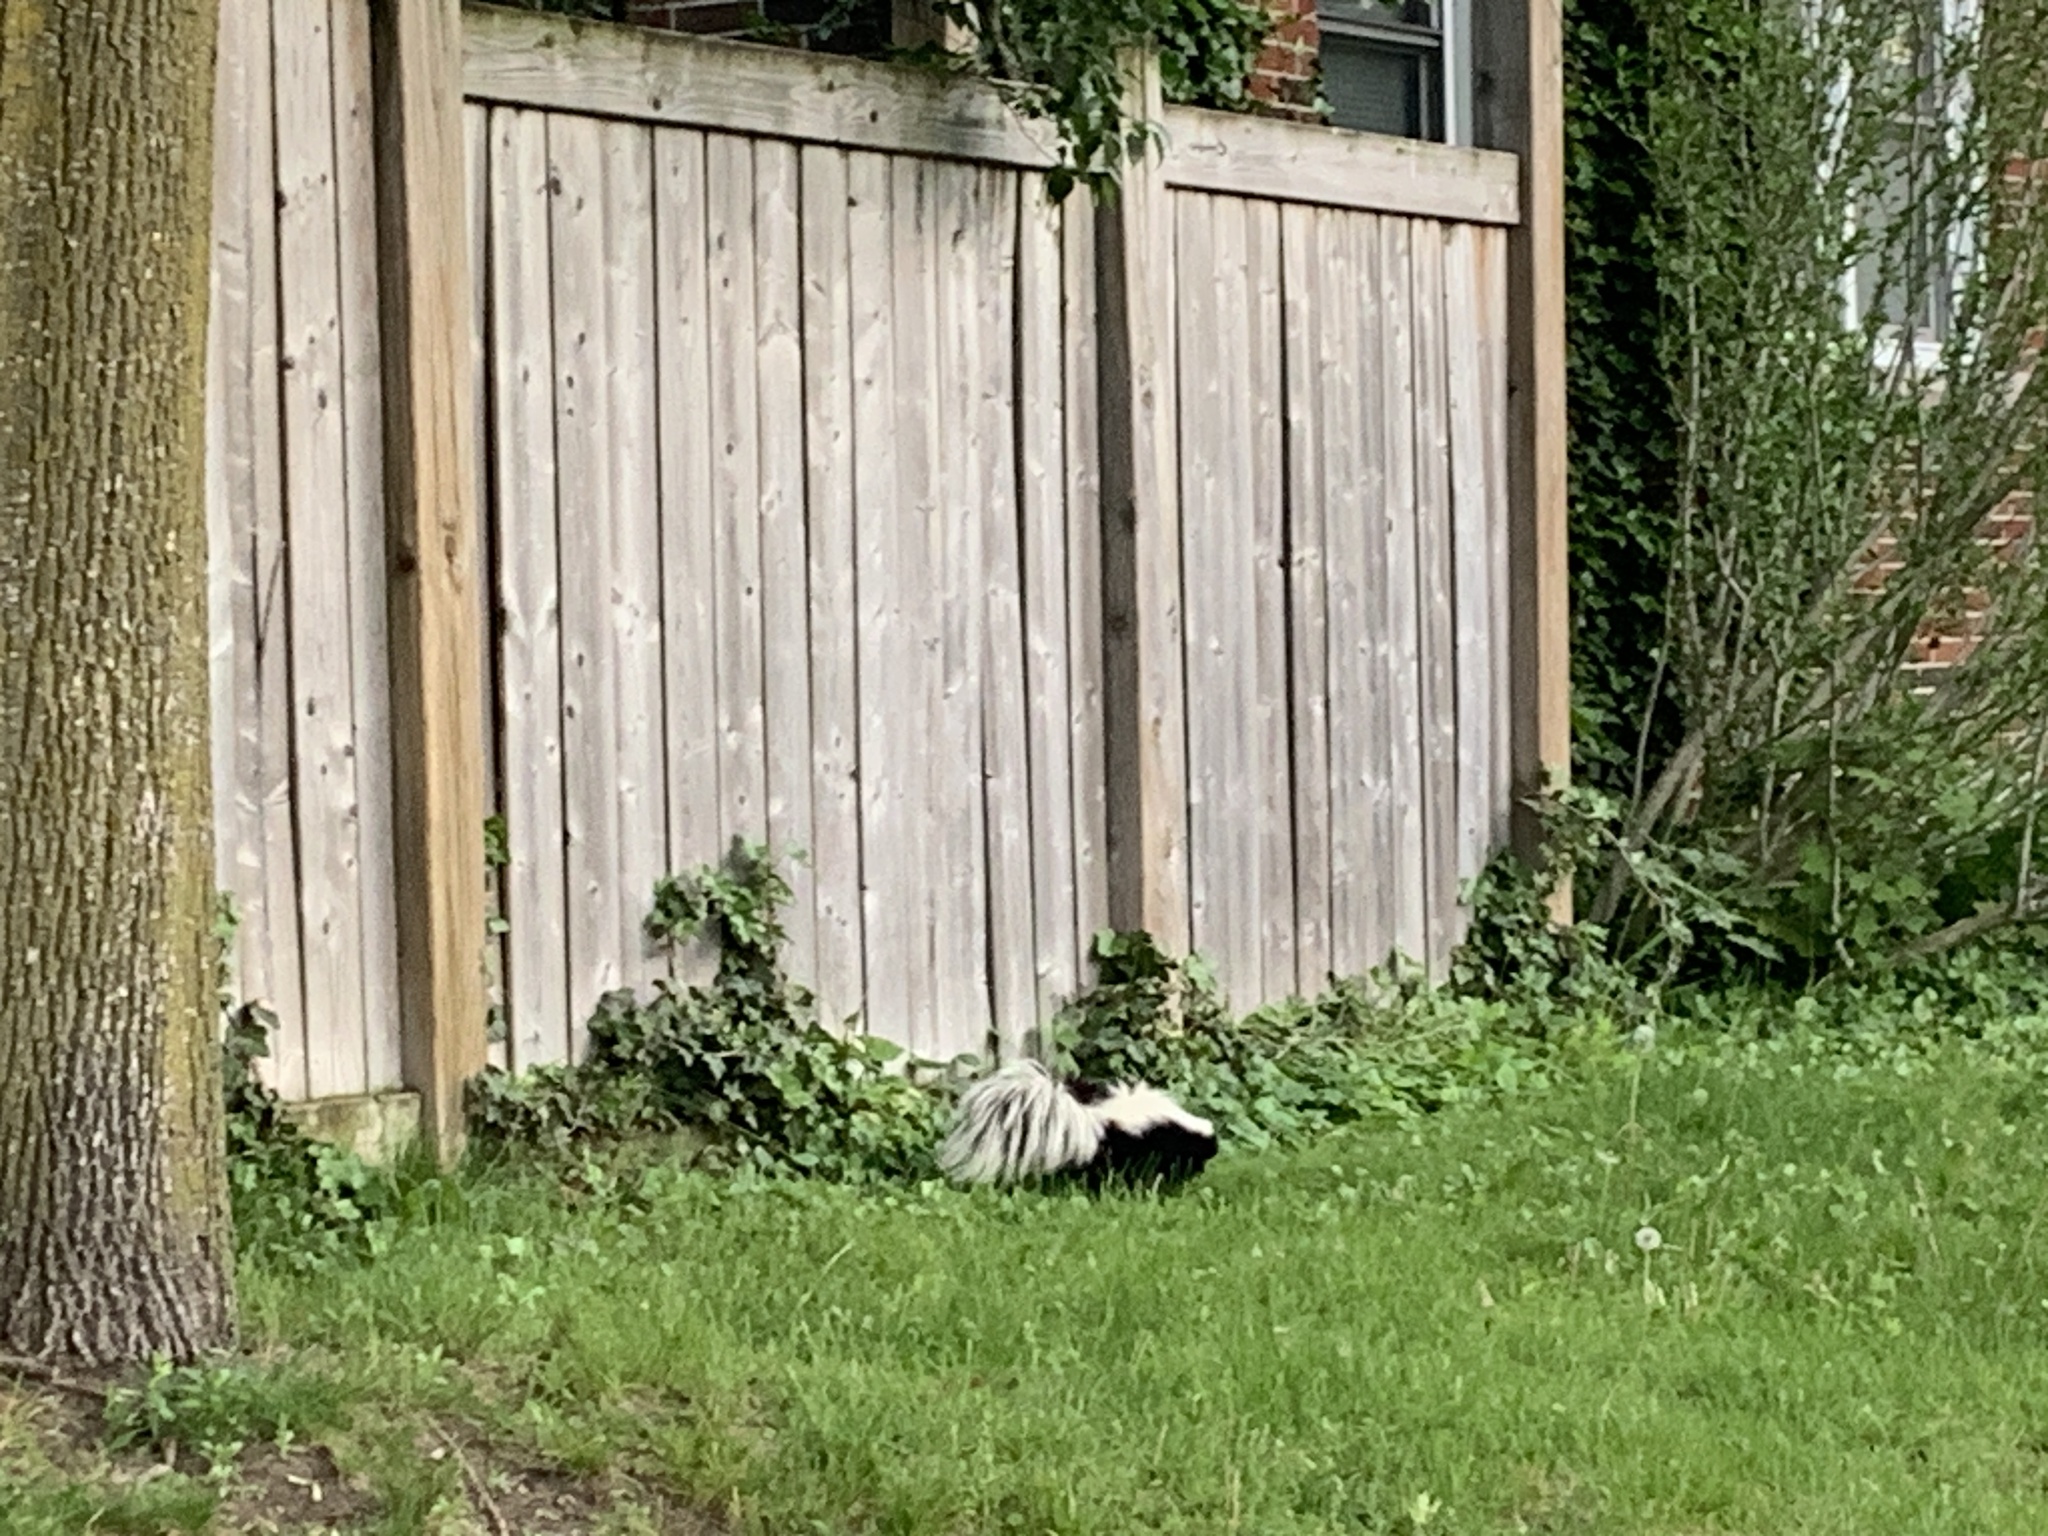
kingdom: Animalia
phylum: Chordata
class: Mammalia
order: Carnivora
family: Mephitidae
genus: Mephitis
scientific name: Mephitis mephitis
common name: Striped skunk
